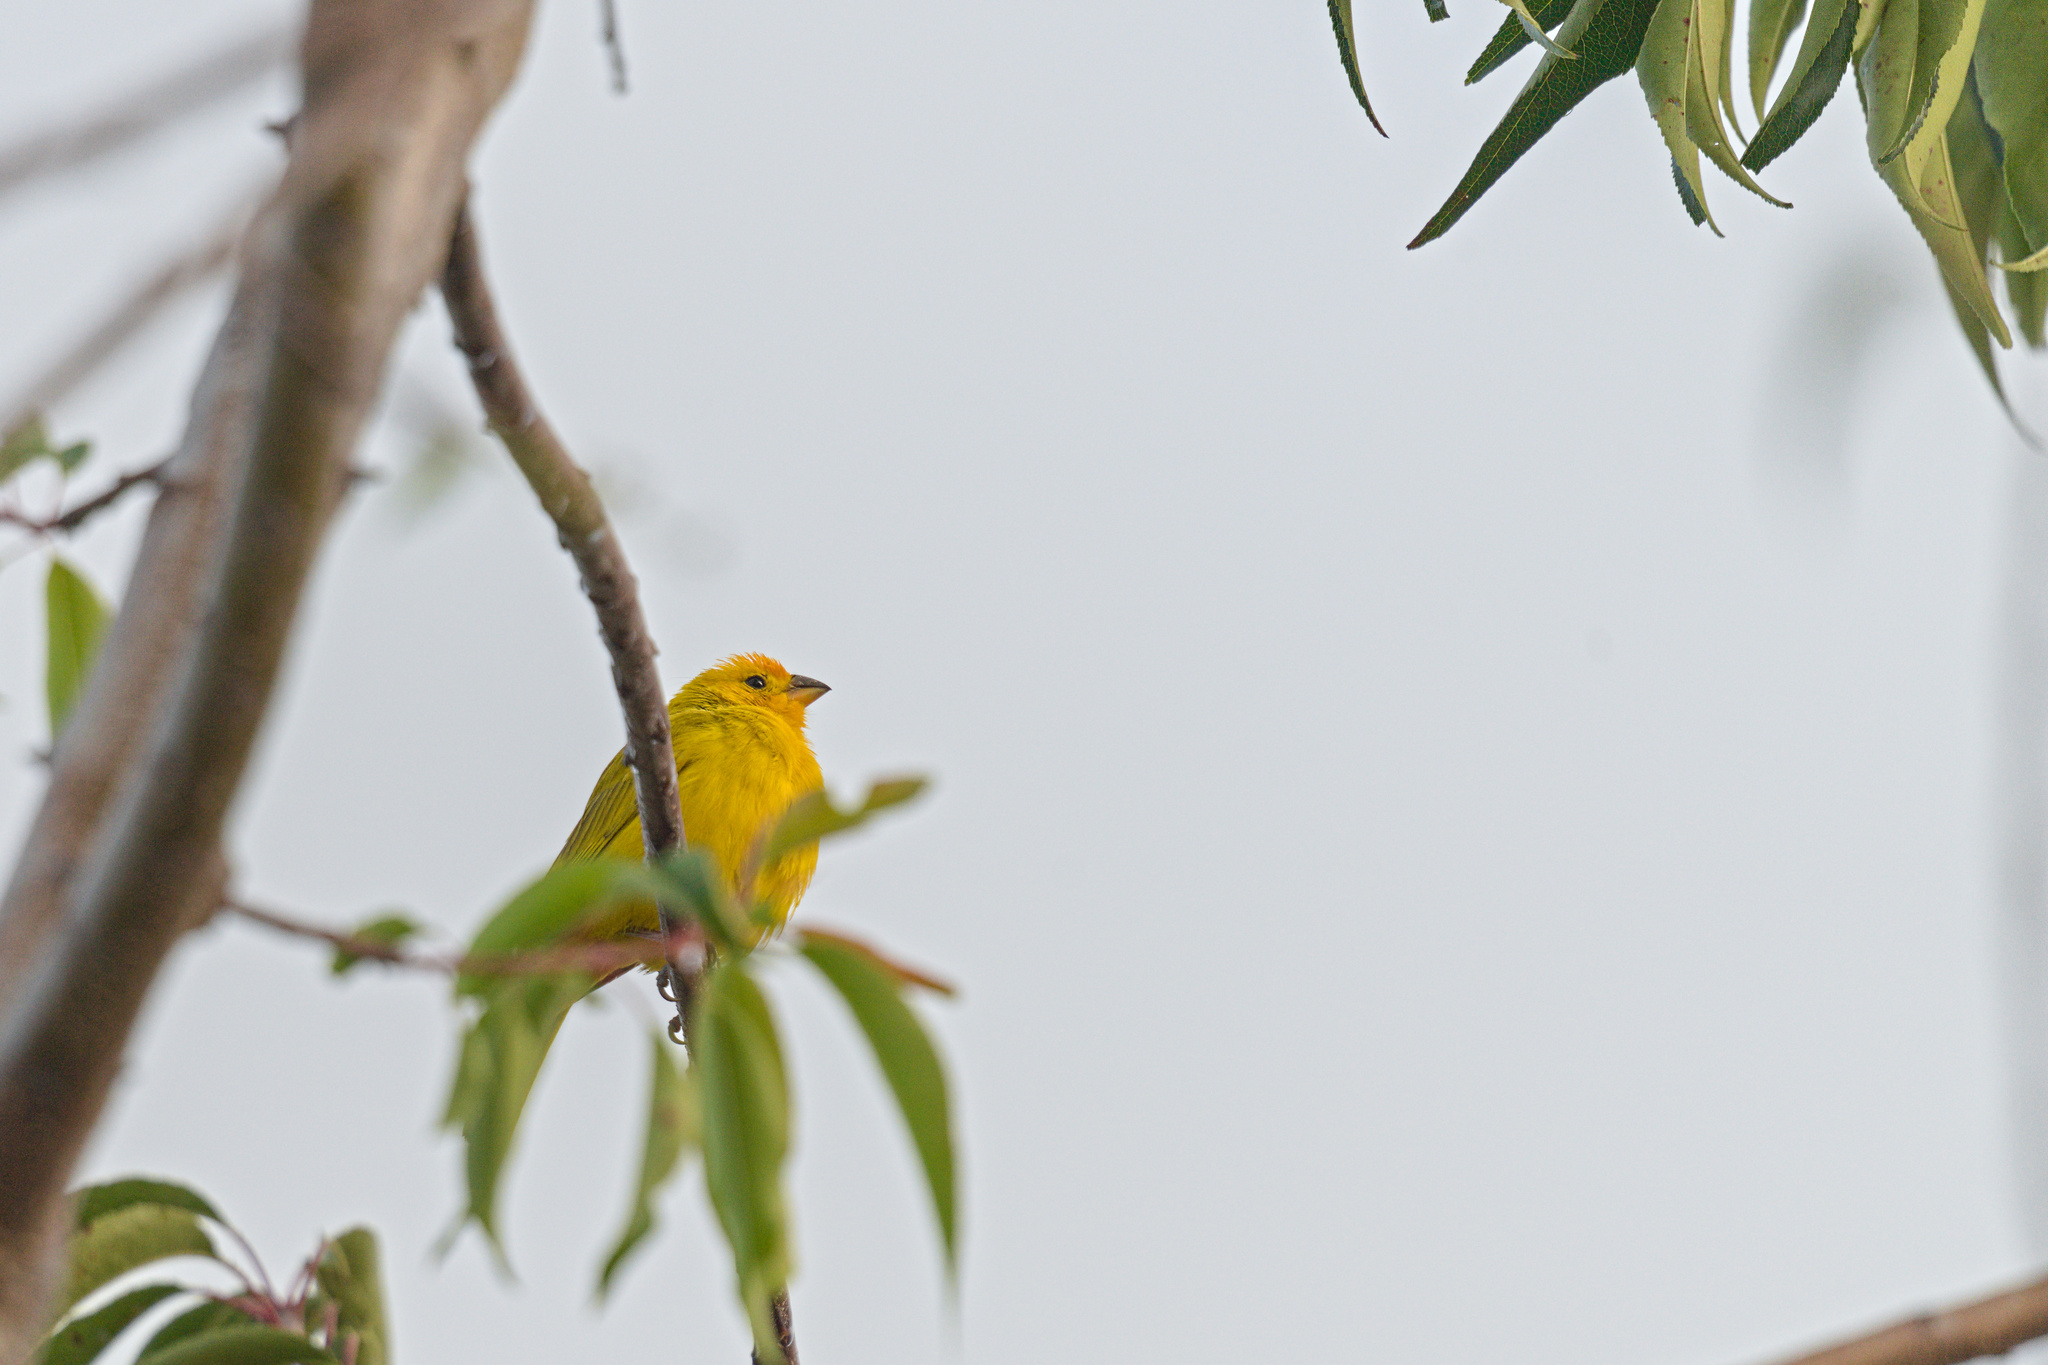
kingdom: Animalia
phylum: Chordata
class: Aves
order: Passeriformes
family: Thraupidae
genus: Sicalis
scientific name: Sicalis flaveola
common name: Saffron finch
